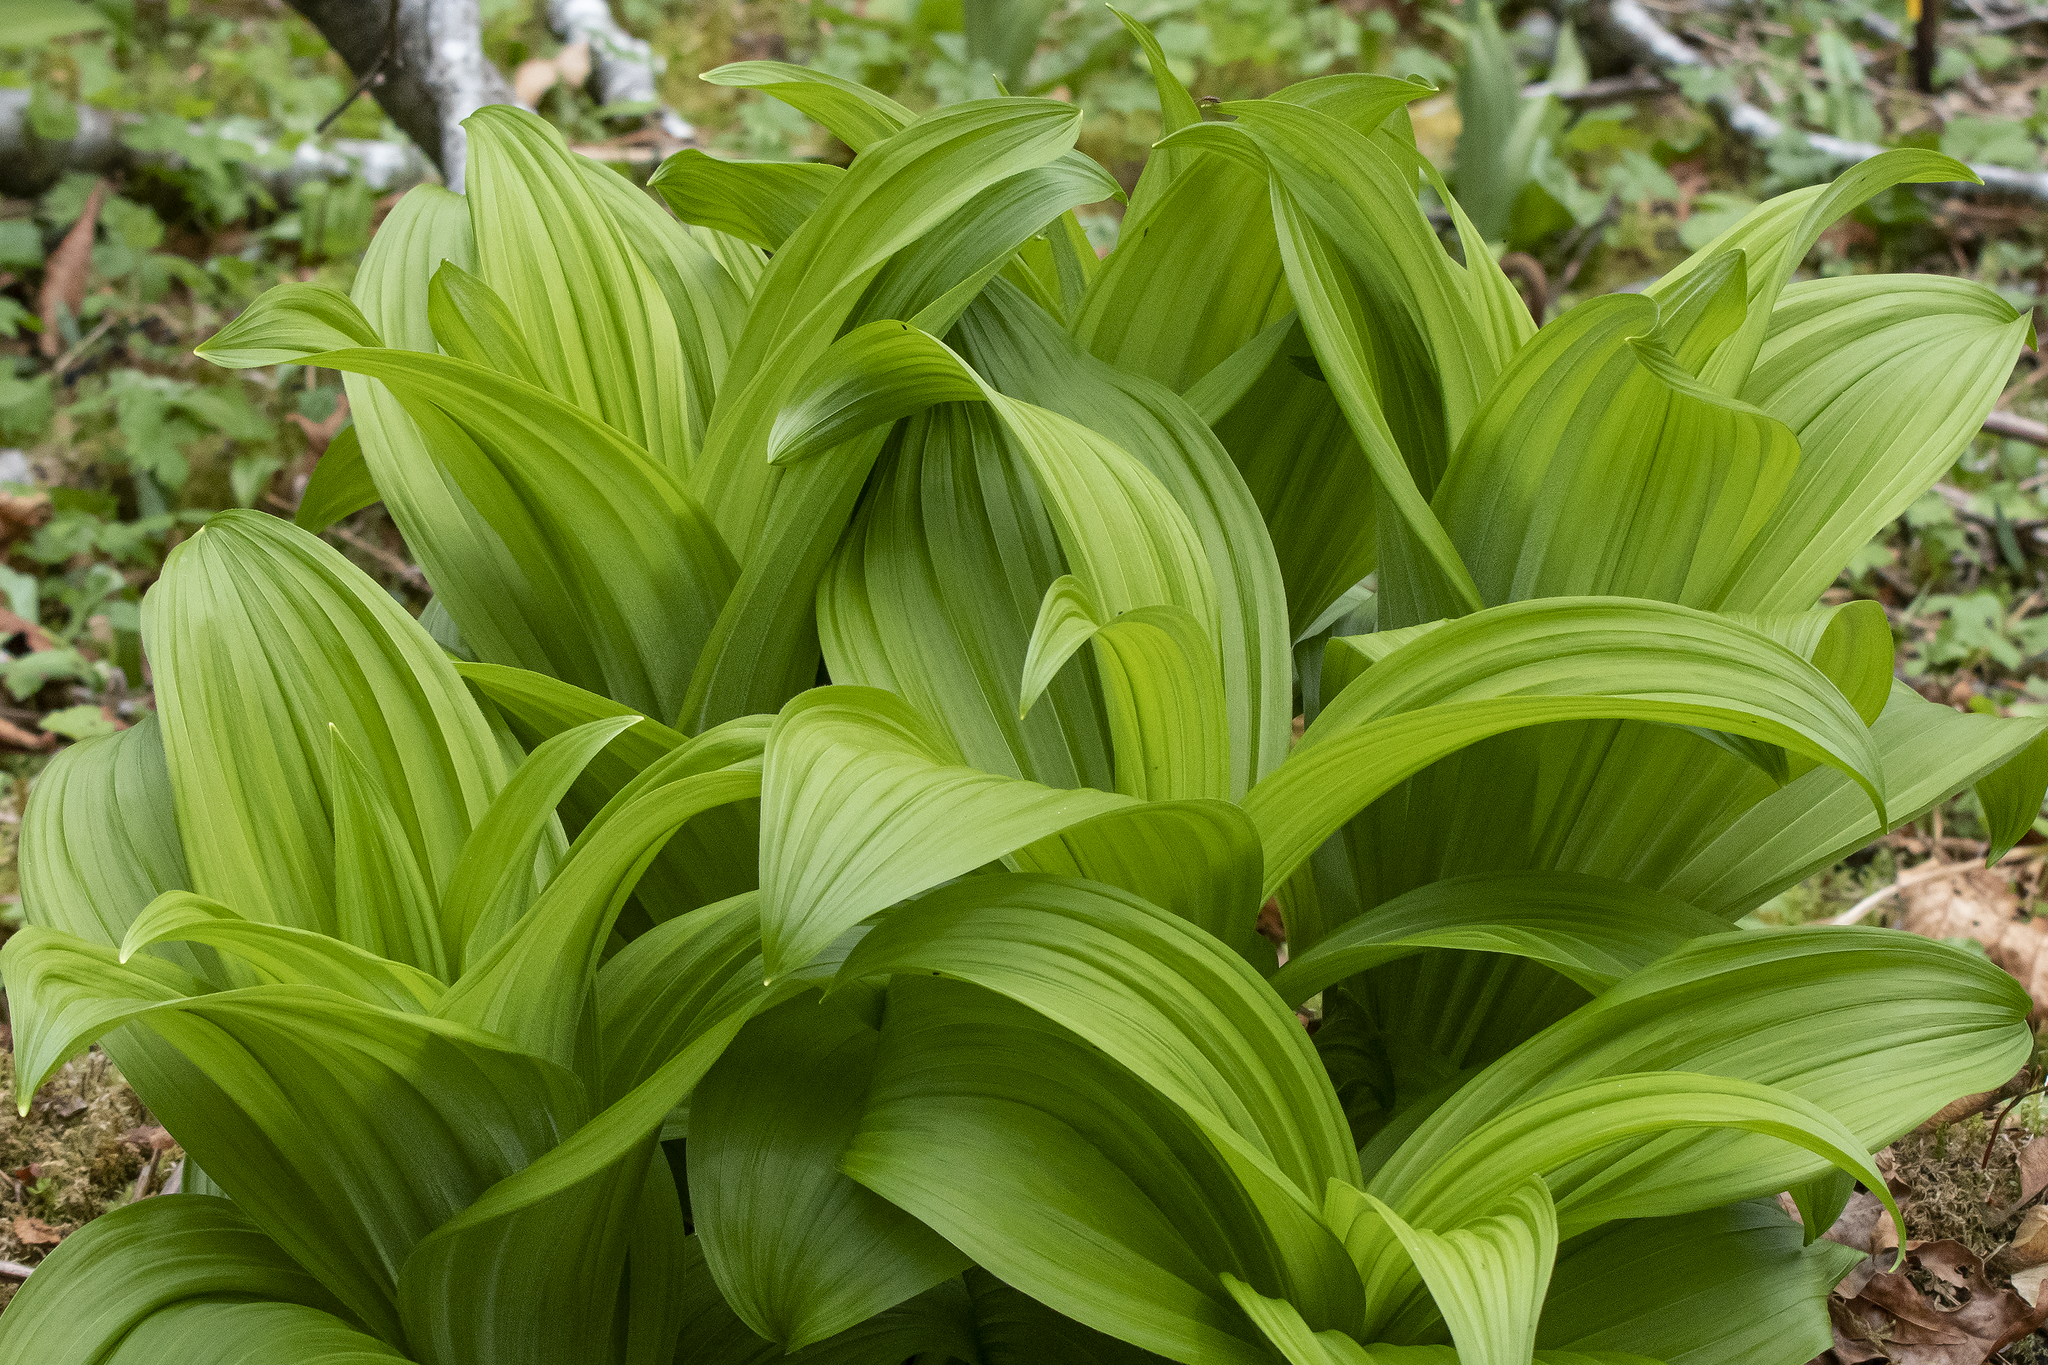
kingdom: Plantae
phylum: Tracheophyta
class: Liliopsida
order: Liliales
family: Melanthiaceae
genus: Veratrum
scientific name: Veratrum viride
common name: American false hellebore
